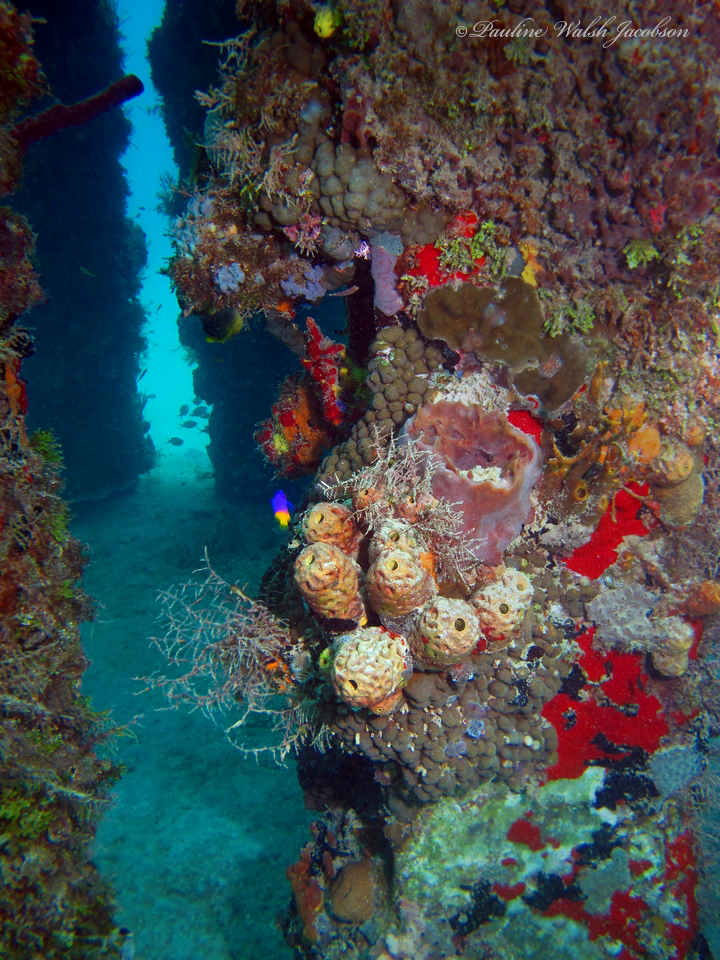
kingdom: Animalia
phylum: Chordata
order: Perciformes
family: Grammatidae
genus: Gramma
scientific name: Gramma loreto
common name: Fairy basslet
